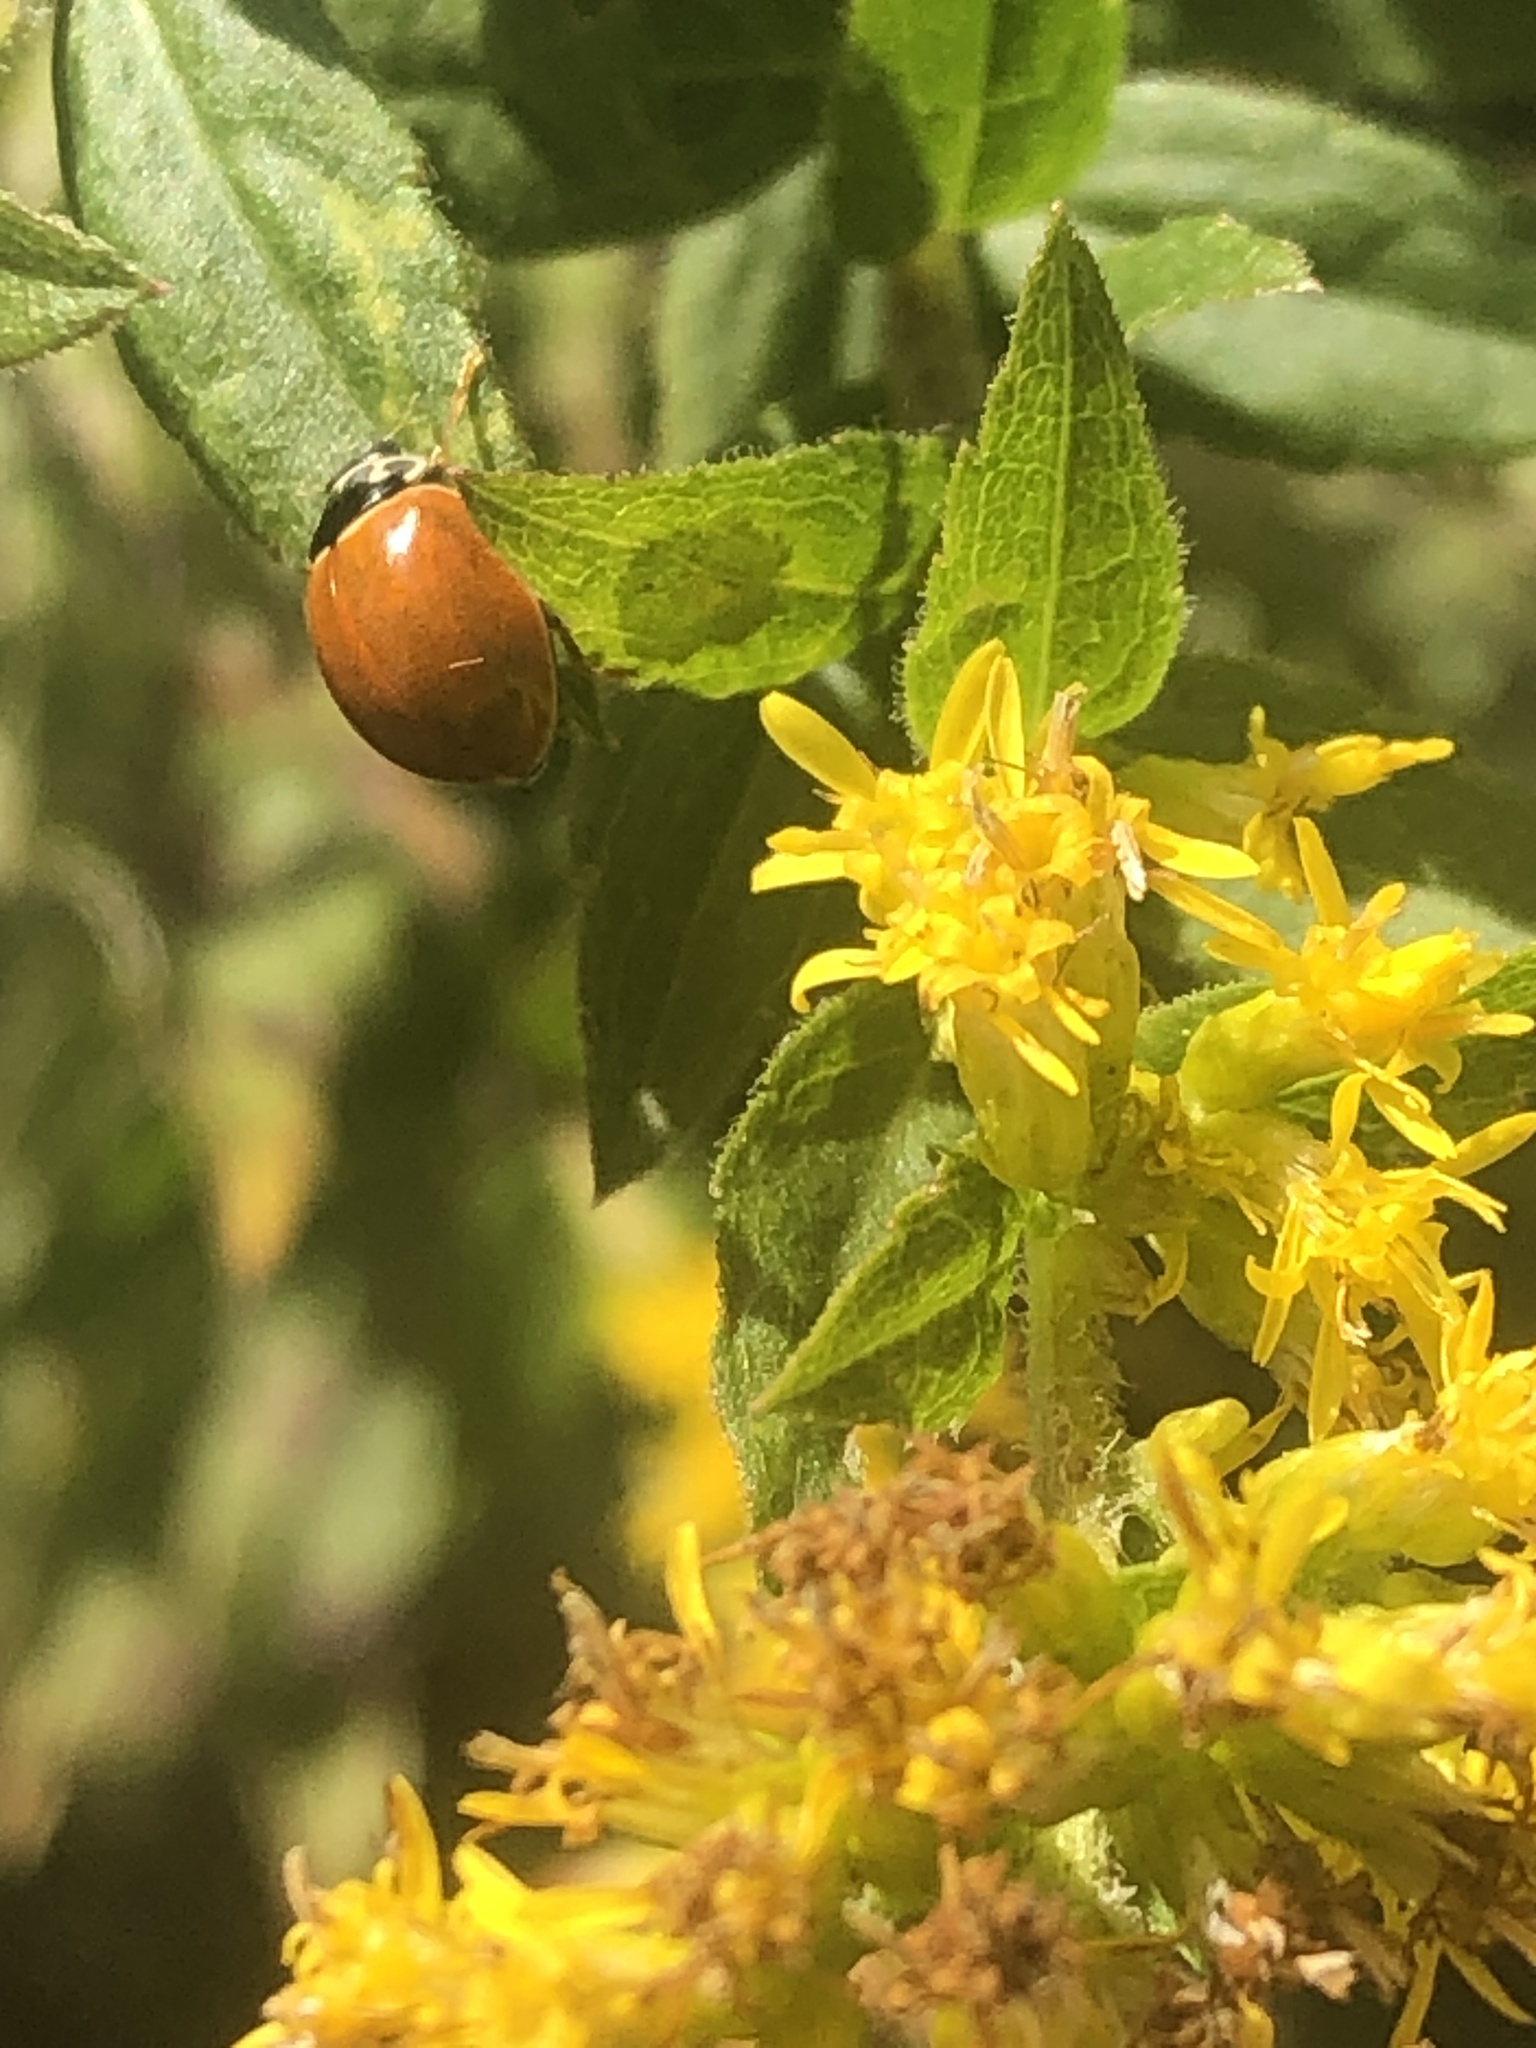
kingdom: Animalia
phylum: Arthropoda
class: Insecta
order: Coleoptera
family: Coccinellidae
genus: Cycloneda
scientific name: Cycloneda munda
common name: Polished lady beetle
